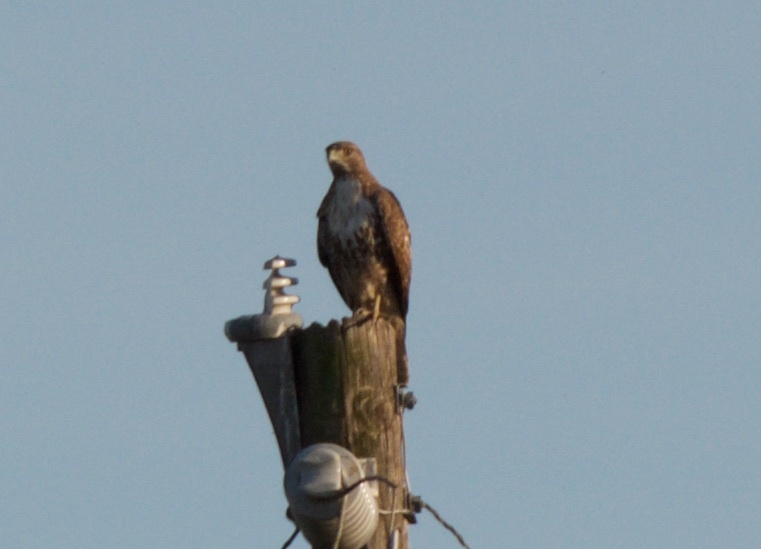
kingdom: Animalia
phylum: Chordata
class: Aves
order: Accipitriformes
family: Accipitridae
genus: Buteo
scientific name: Buteo jamaicensis
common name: Red-tailed hawk
